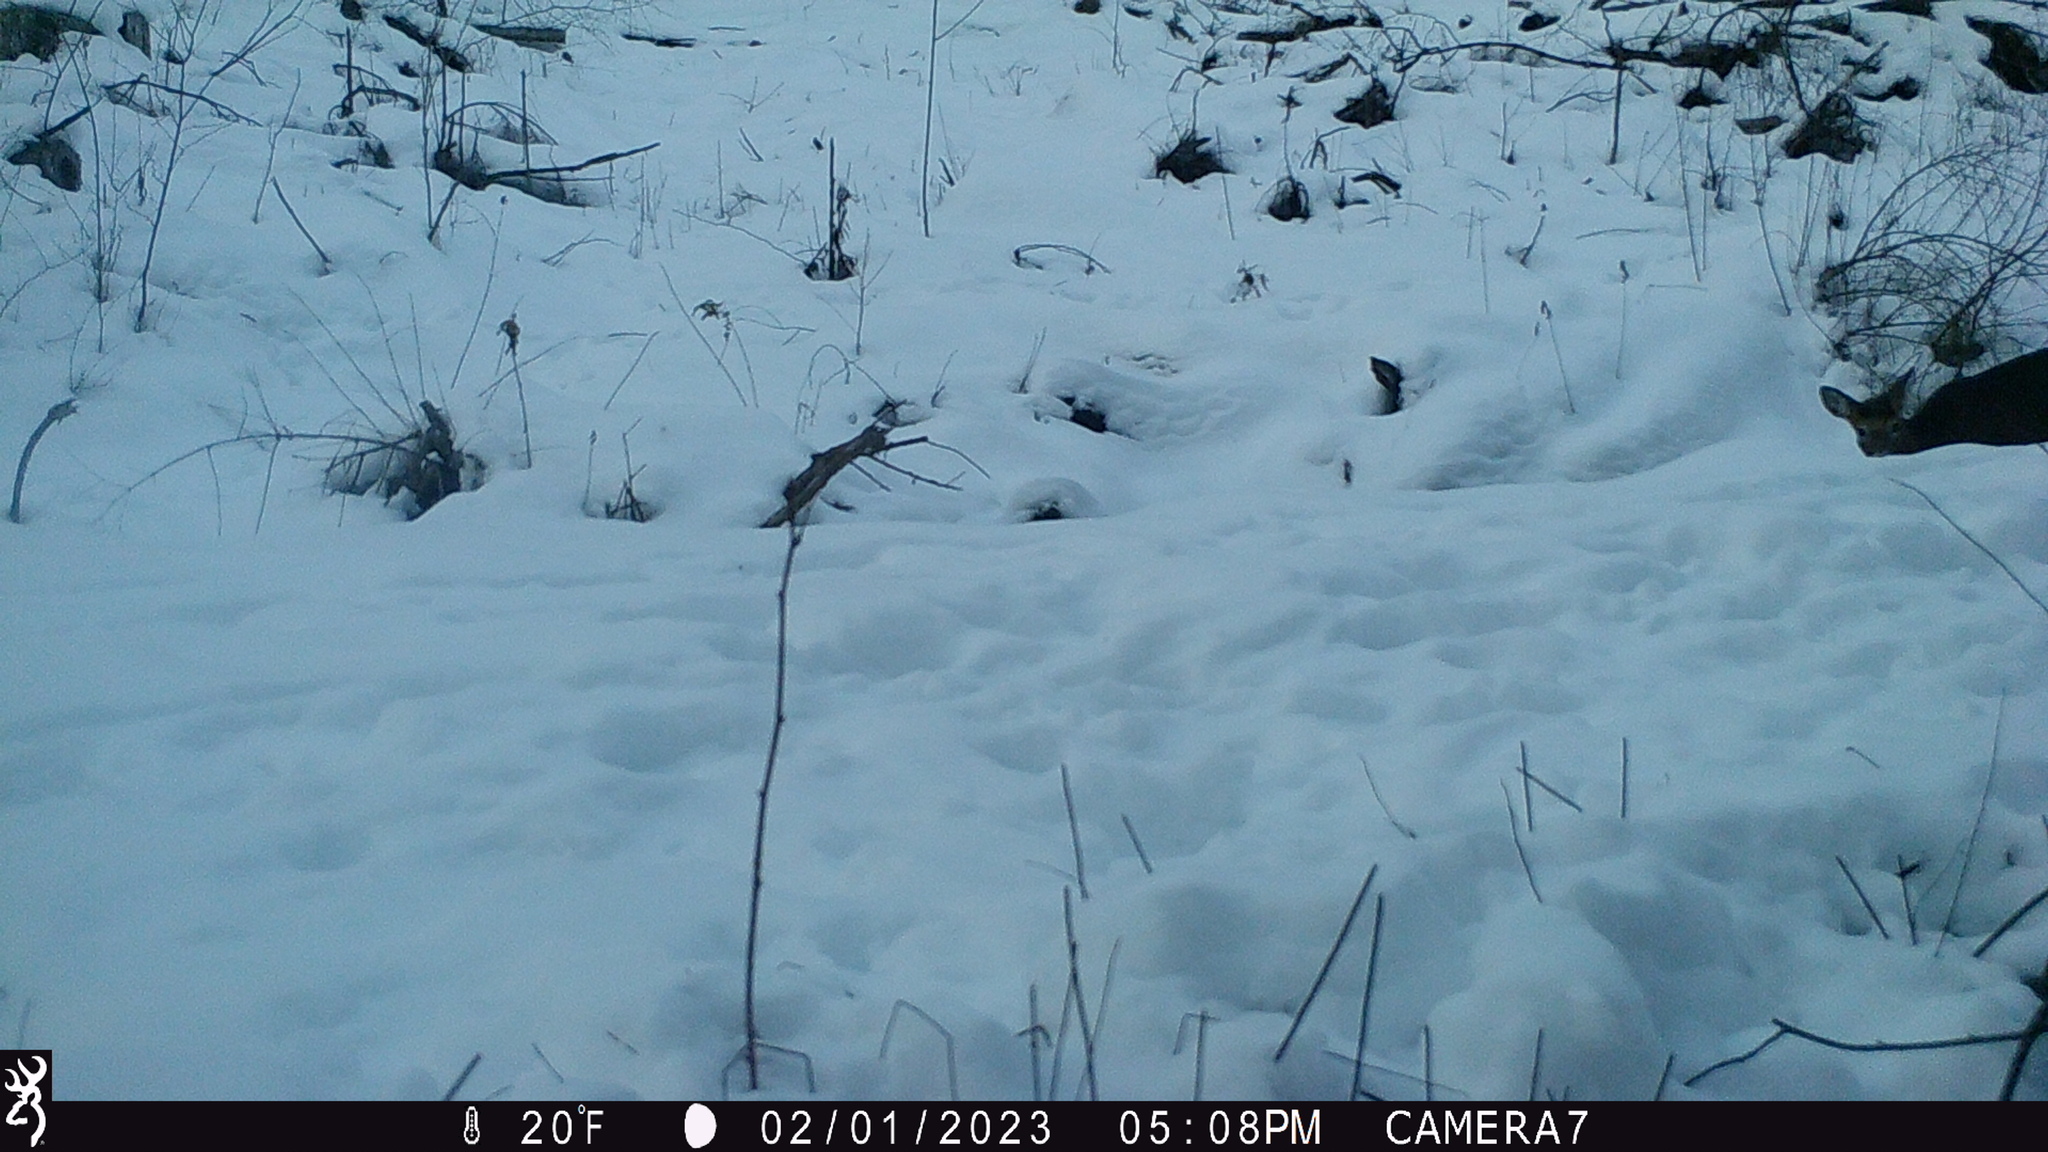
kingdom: Animalia
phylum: Chordata
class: Mammalia
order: Artiodactyla
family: Cervidae
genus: Odocoileus
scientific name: Odocoileus virginianus
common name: White-tailed deer
